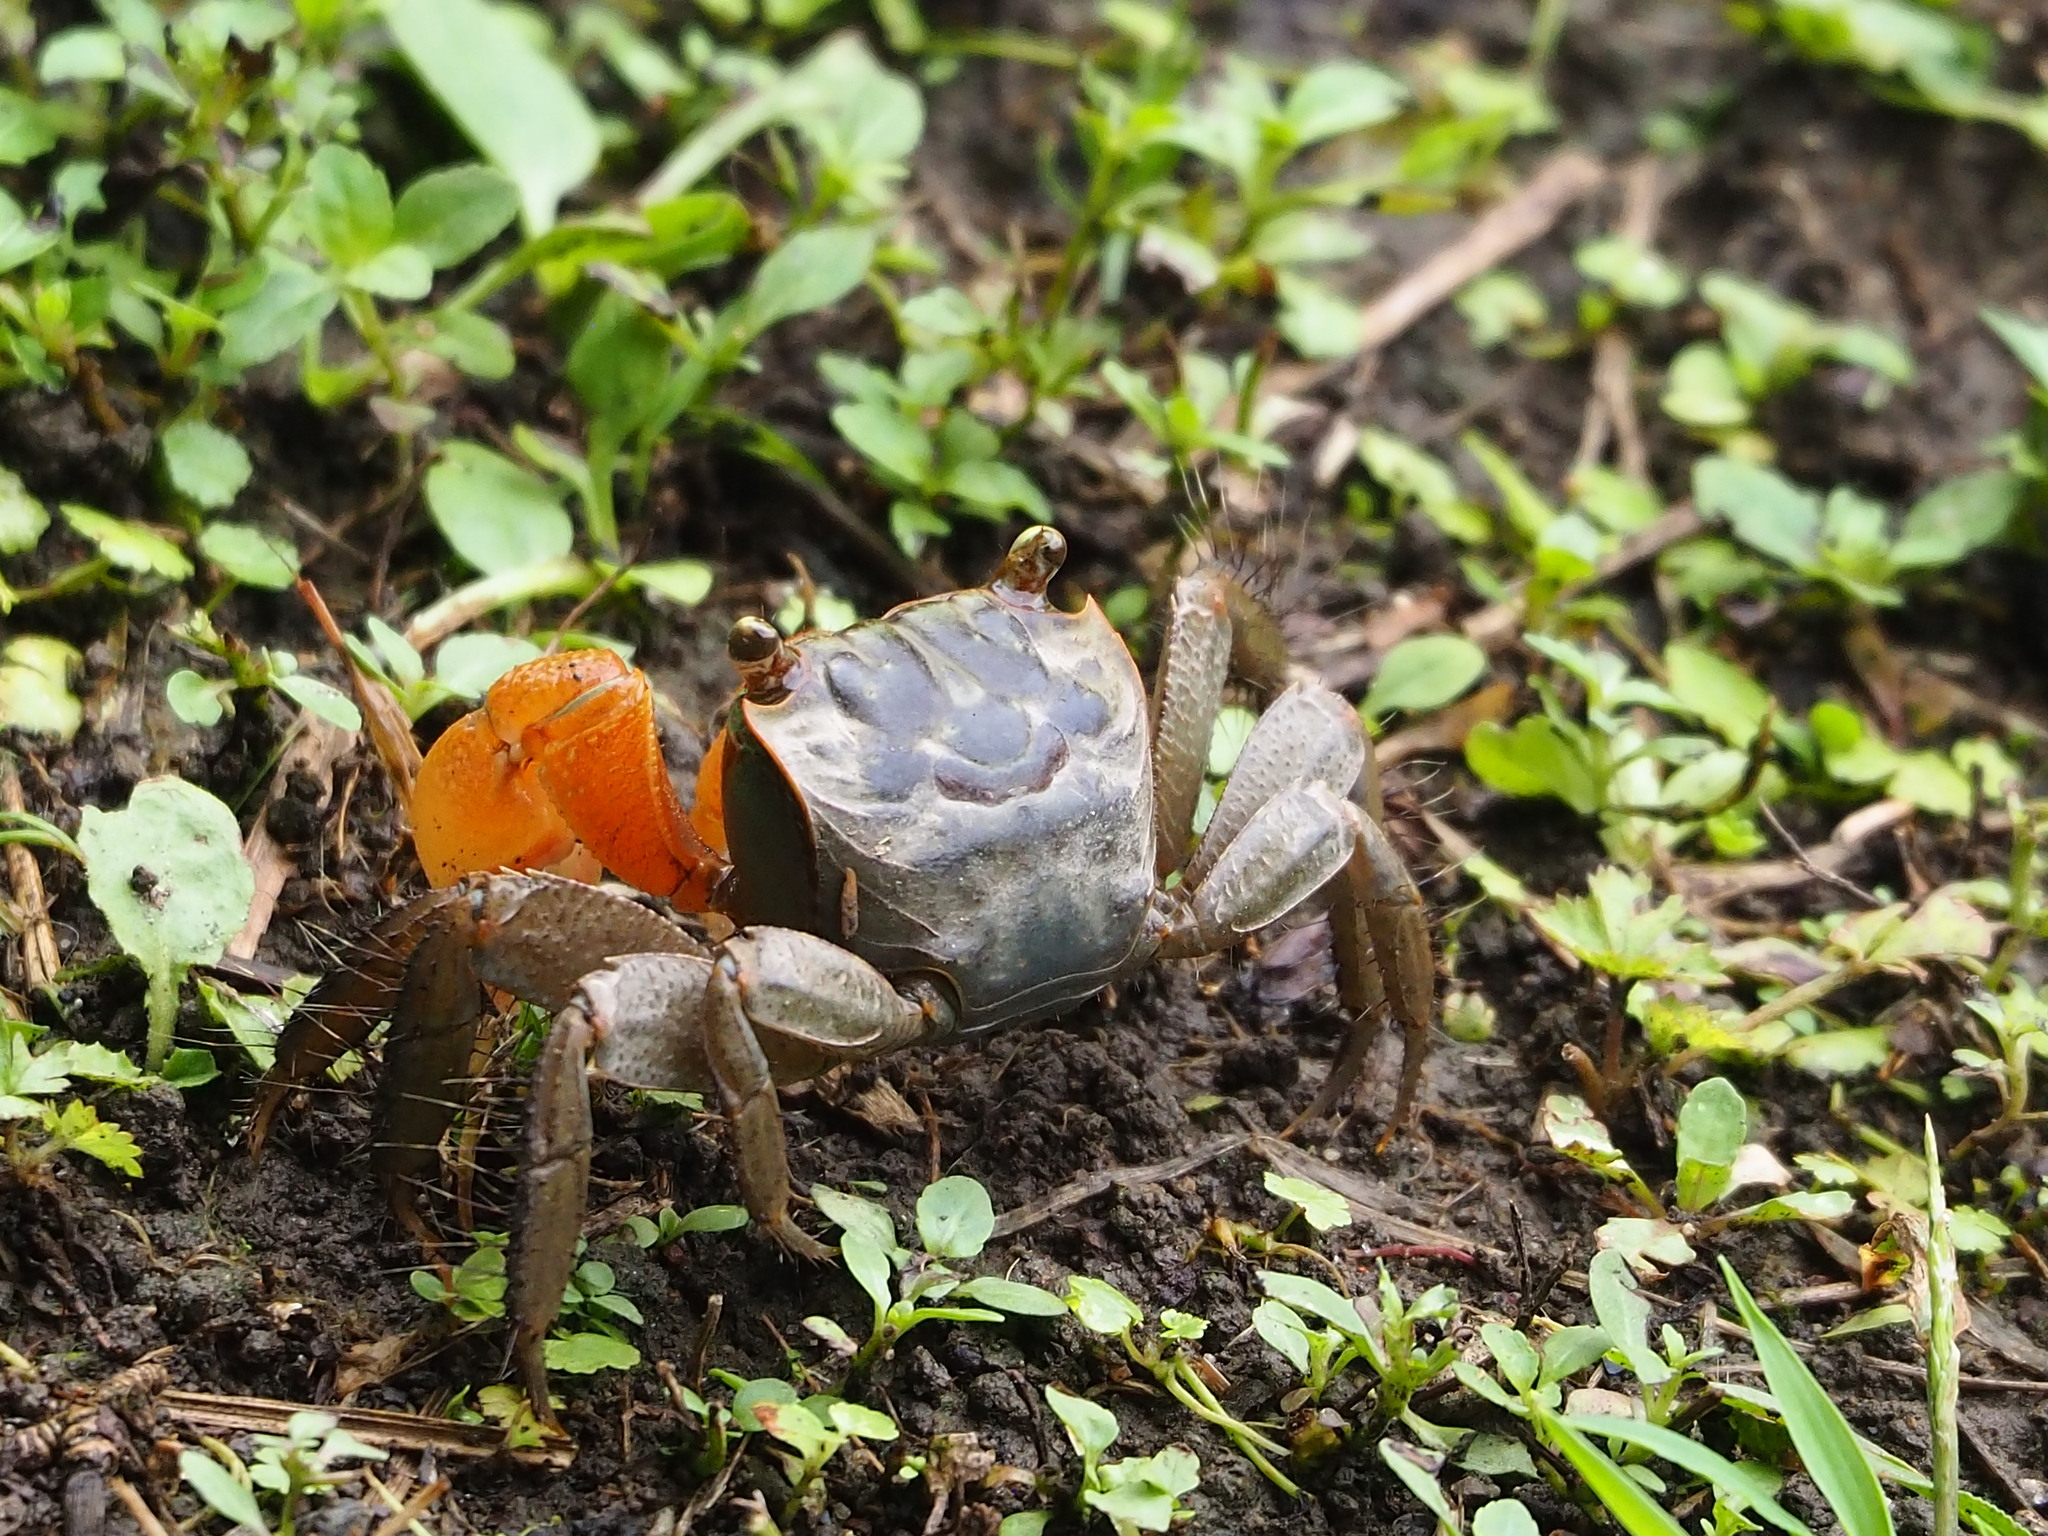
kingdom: Animalia
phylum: Arthropoda
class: Malacostraca
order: Decapoda
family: Sesarmidae
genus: Orisarma
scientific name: Orisarma dehaani
